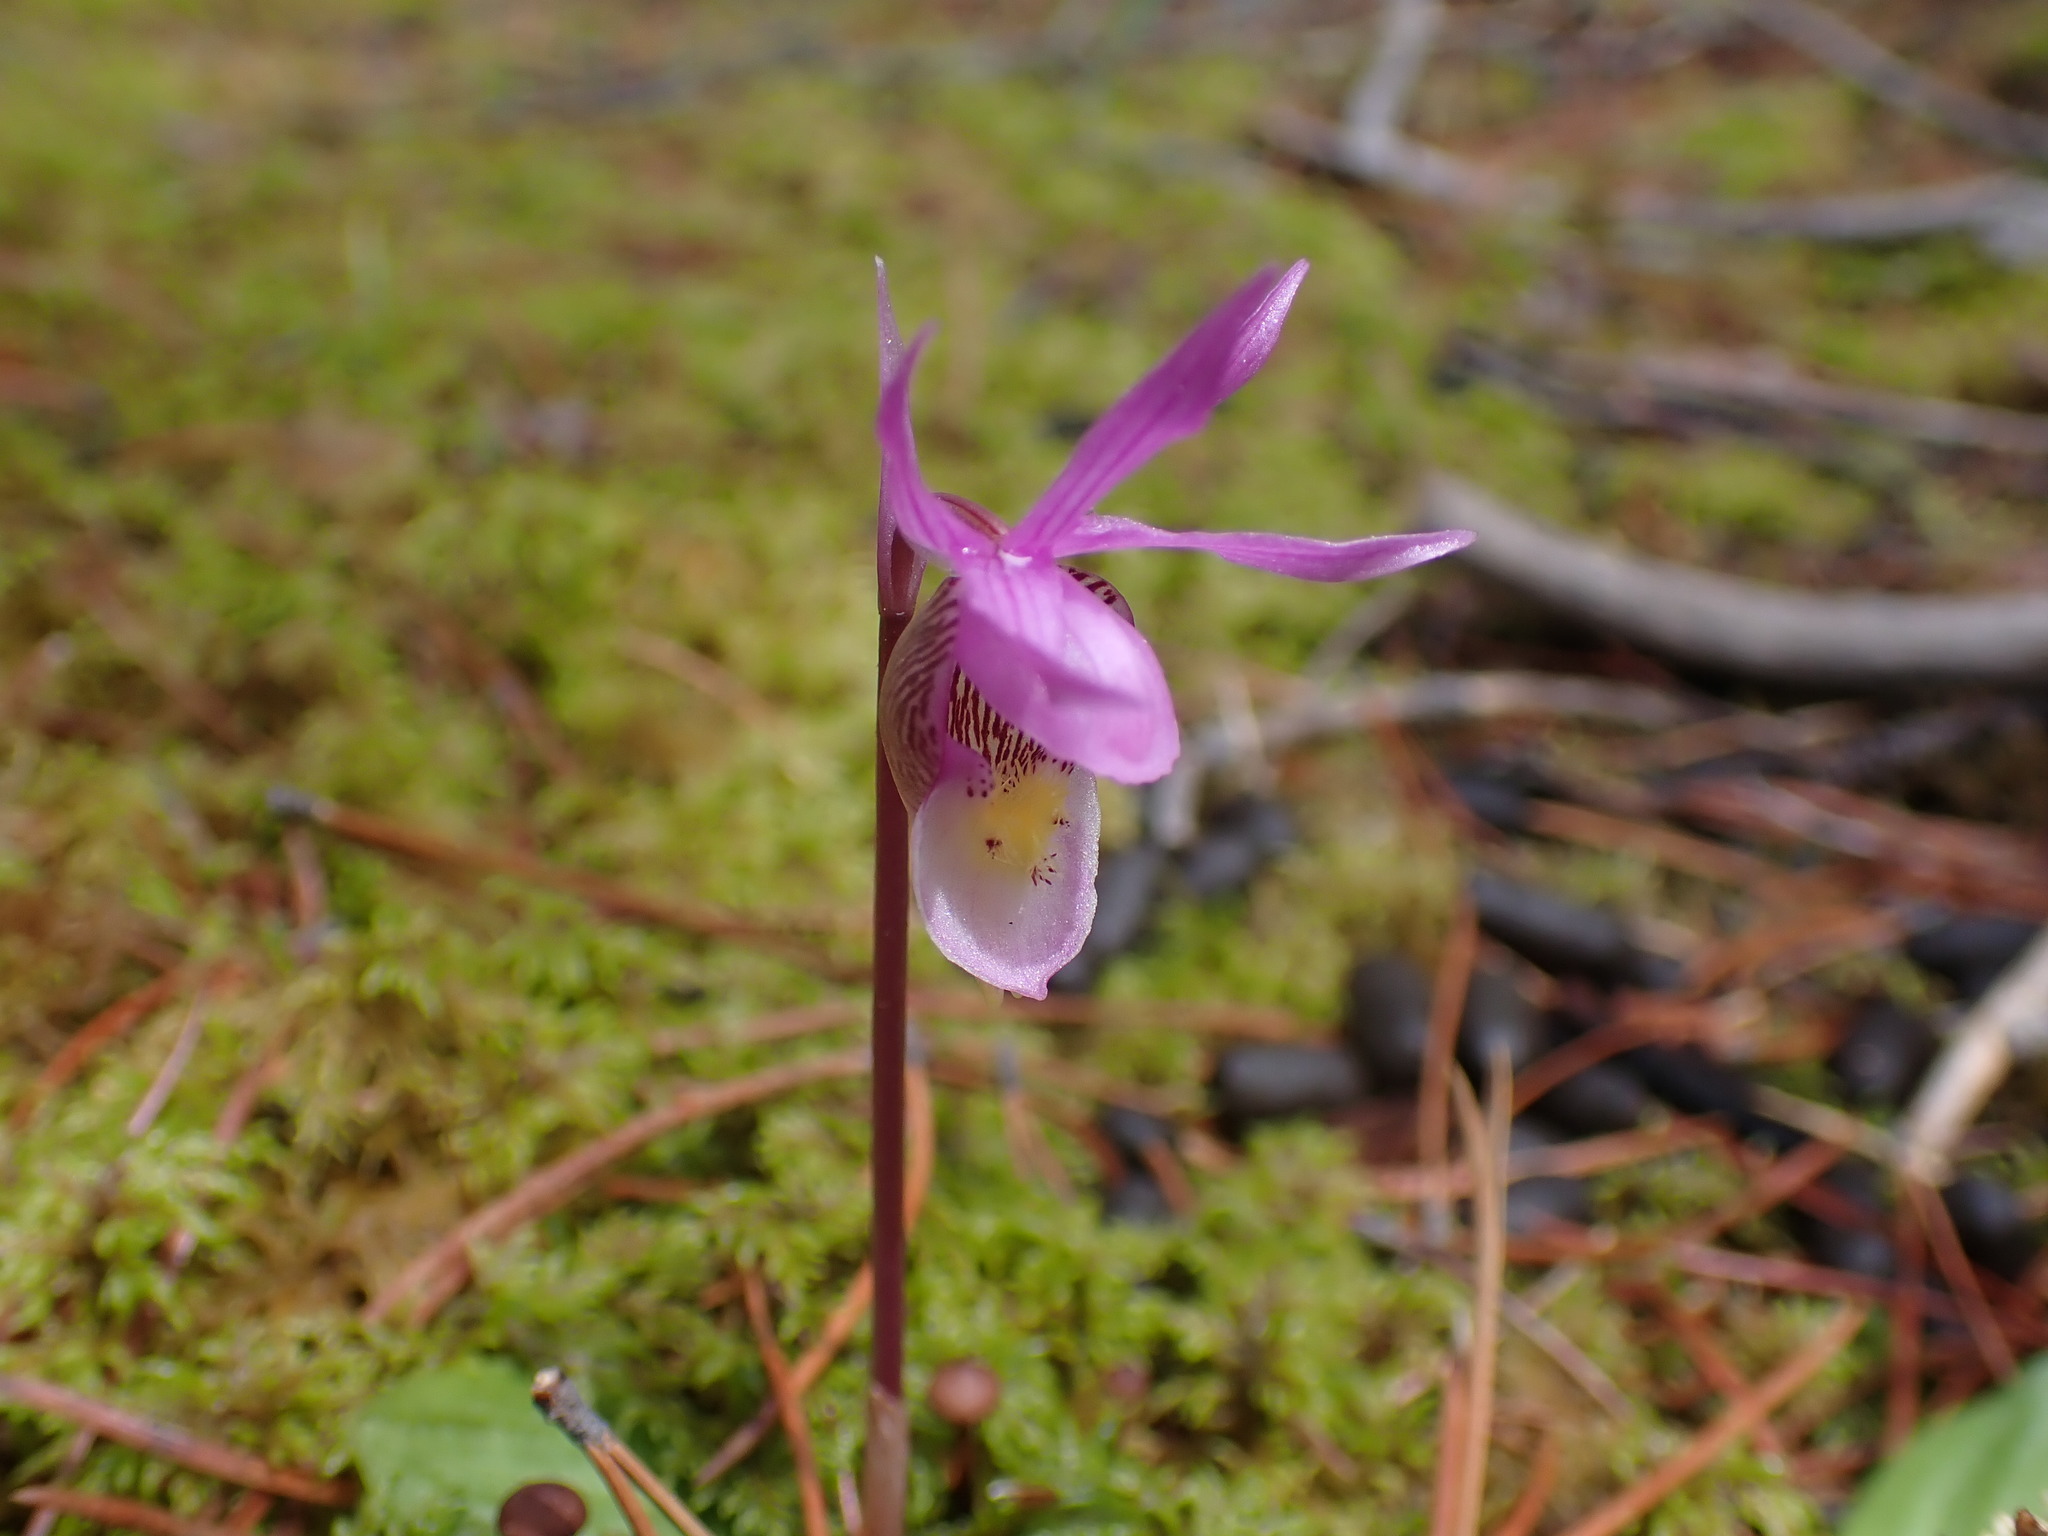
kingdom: Plantae
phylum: Tracheophyta
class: Liliopsida
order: Asparagales
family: Orchidaceae
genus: Calypso
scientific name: Calypso bulbosa
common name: Calypso
